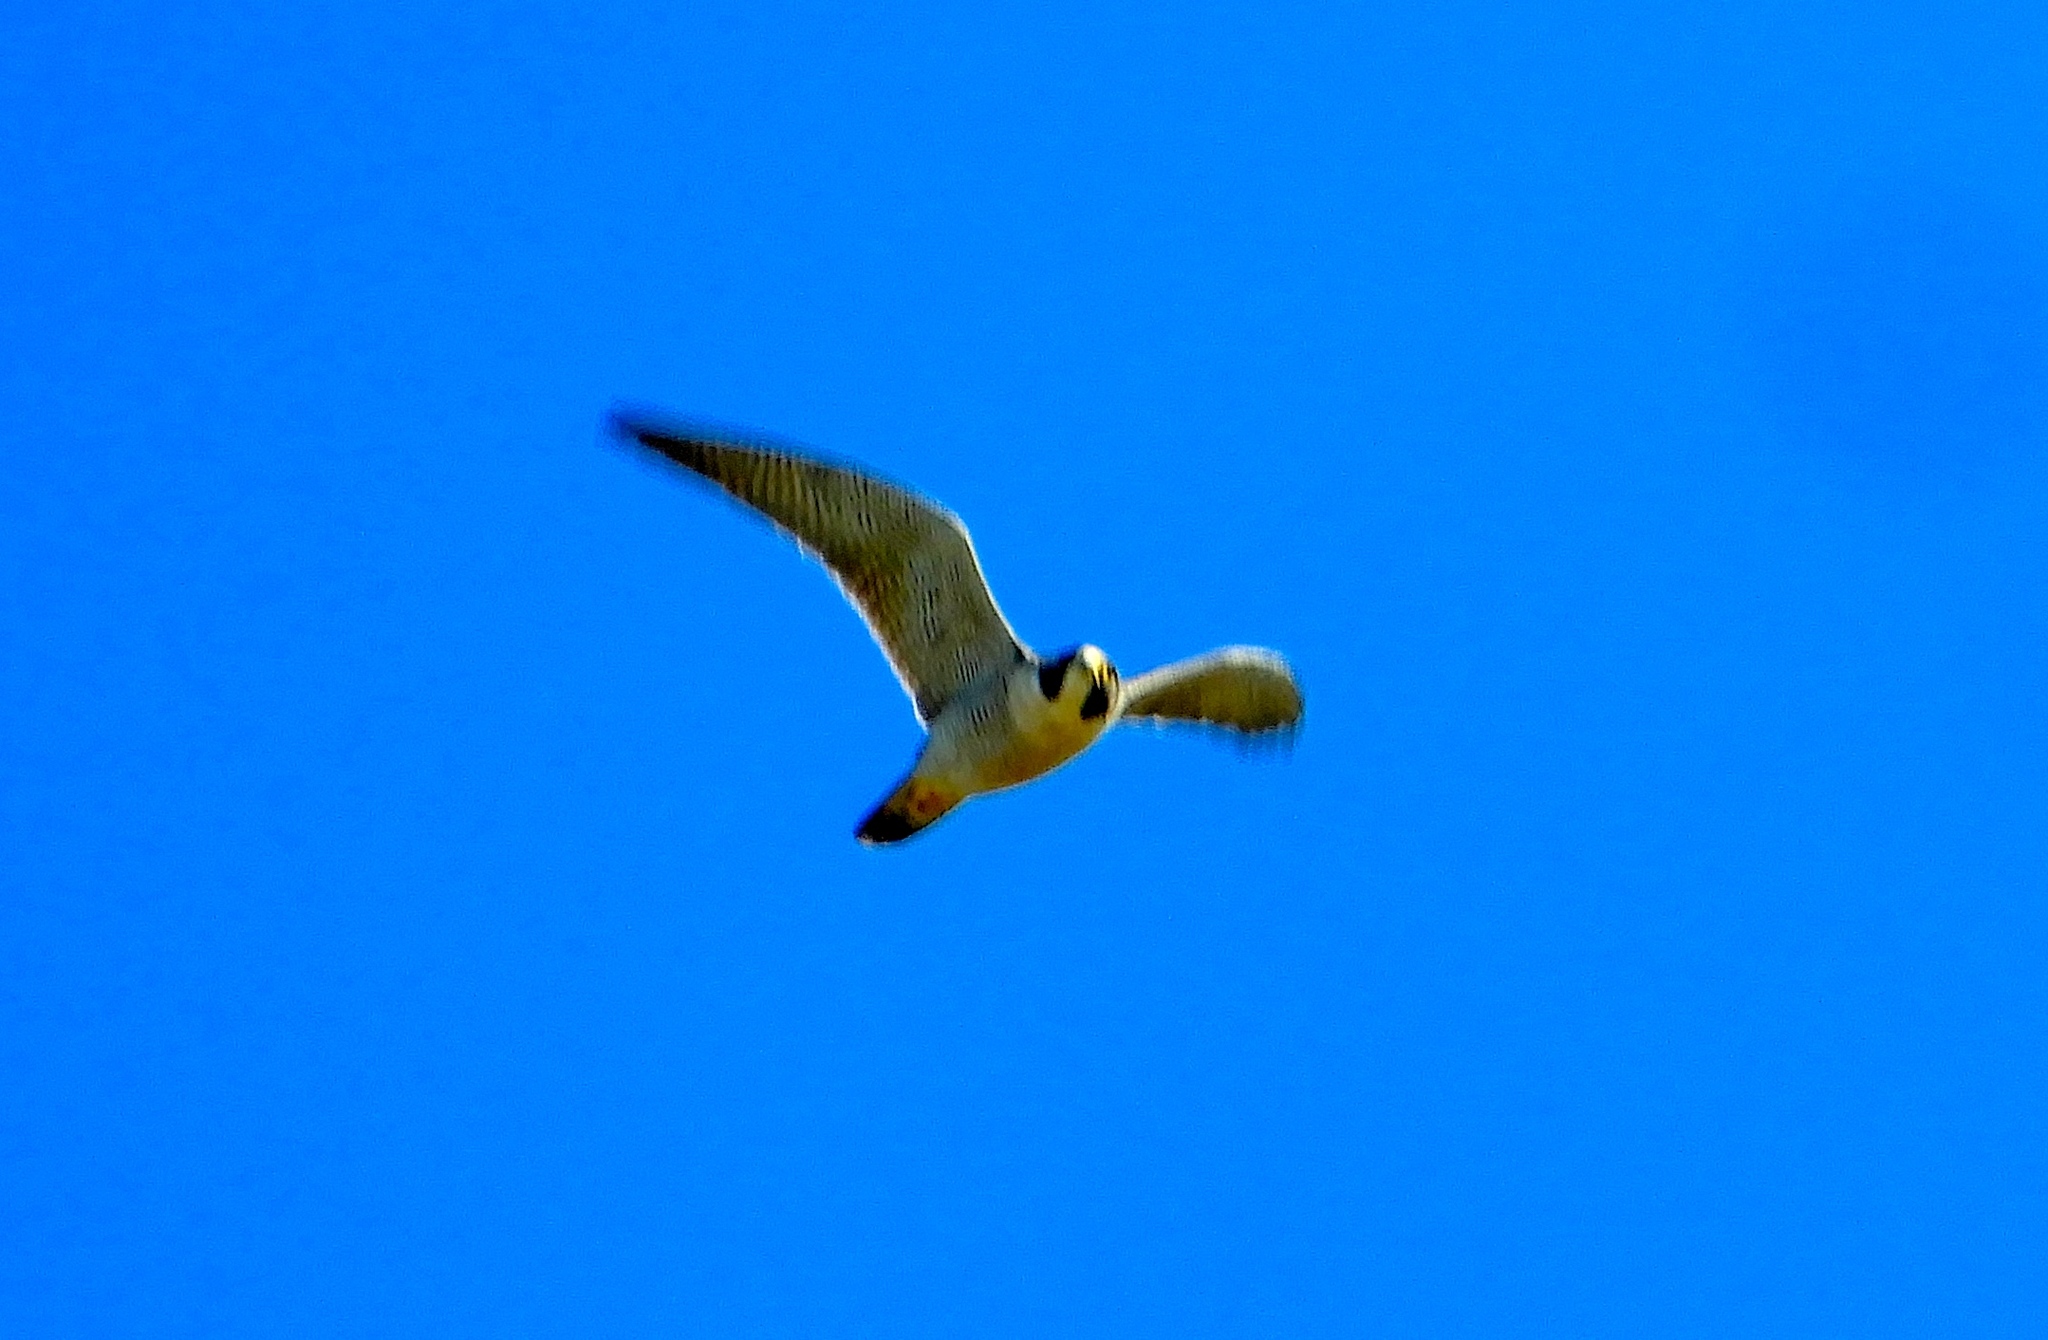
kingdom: Animalia
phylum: Chordata
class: Aves
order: Falconiformes
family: Falconidae
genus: Falco
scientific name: Falco peregrinus
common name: Peregrine falcon
